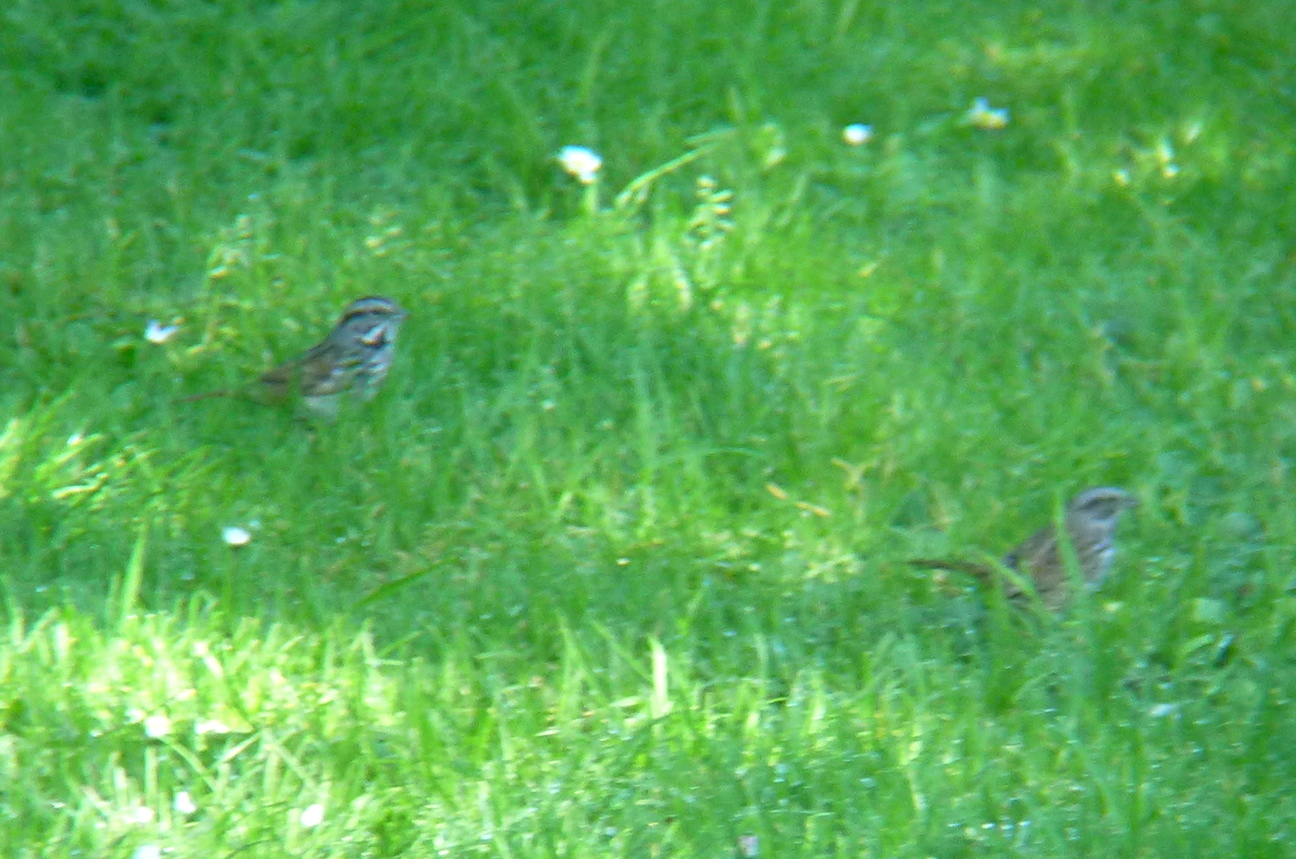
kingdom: Animalia
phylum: Chordata
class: Aves
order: Passeriformes
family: Passerellidae
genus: Melospiza
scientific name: Melospiza melodia
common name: Song sparrow
